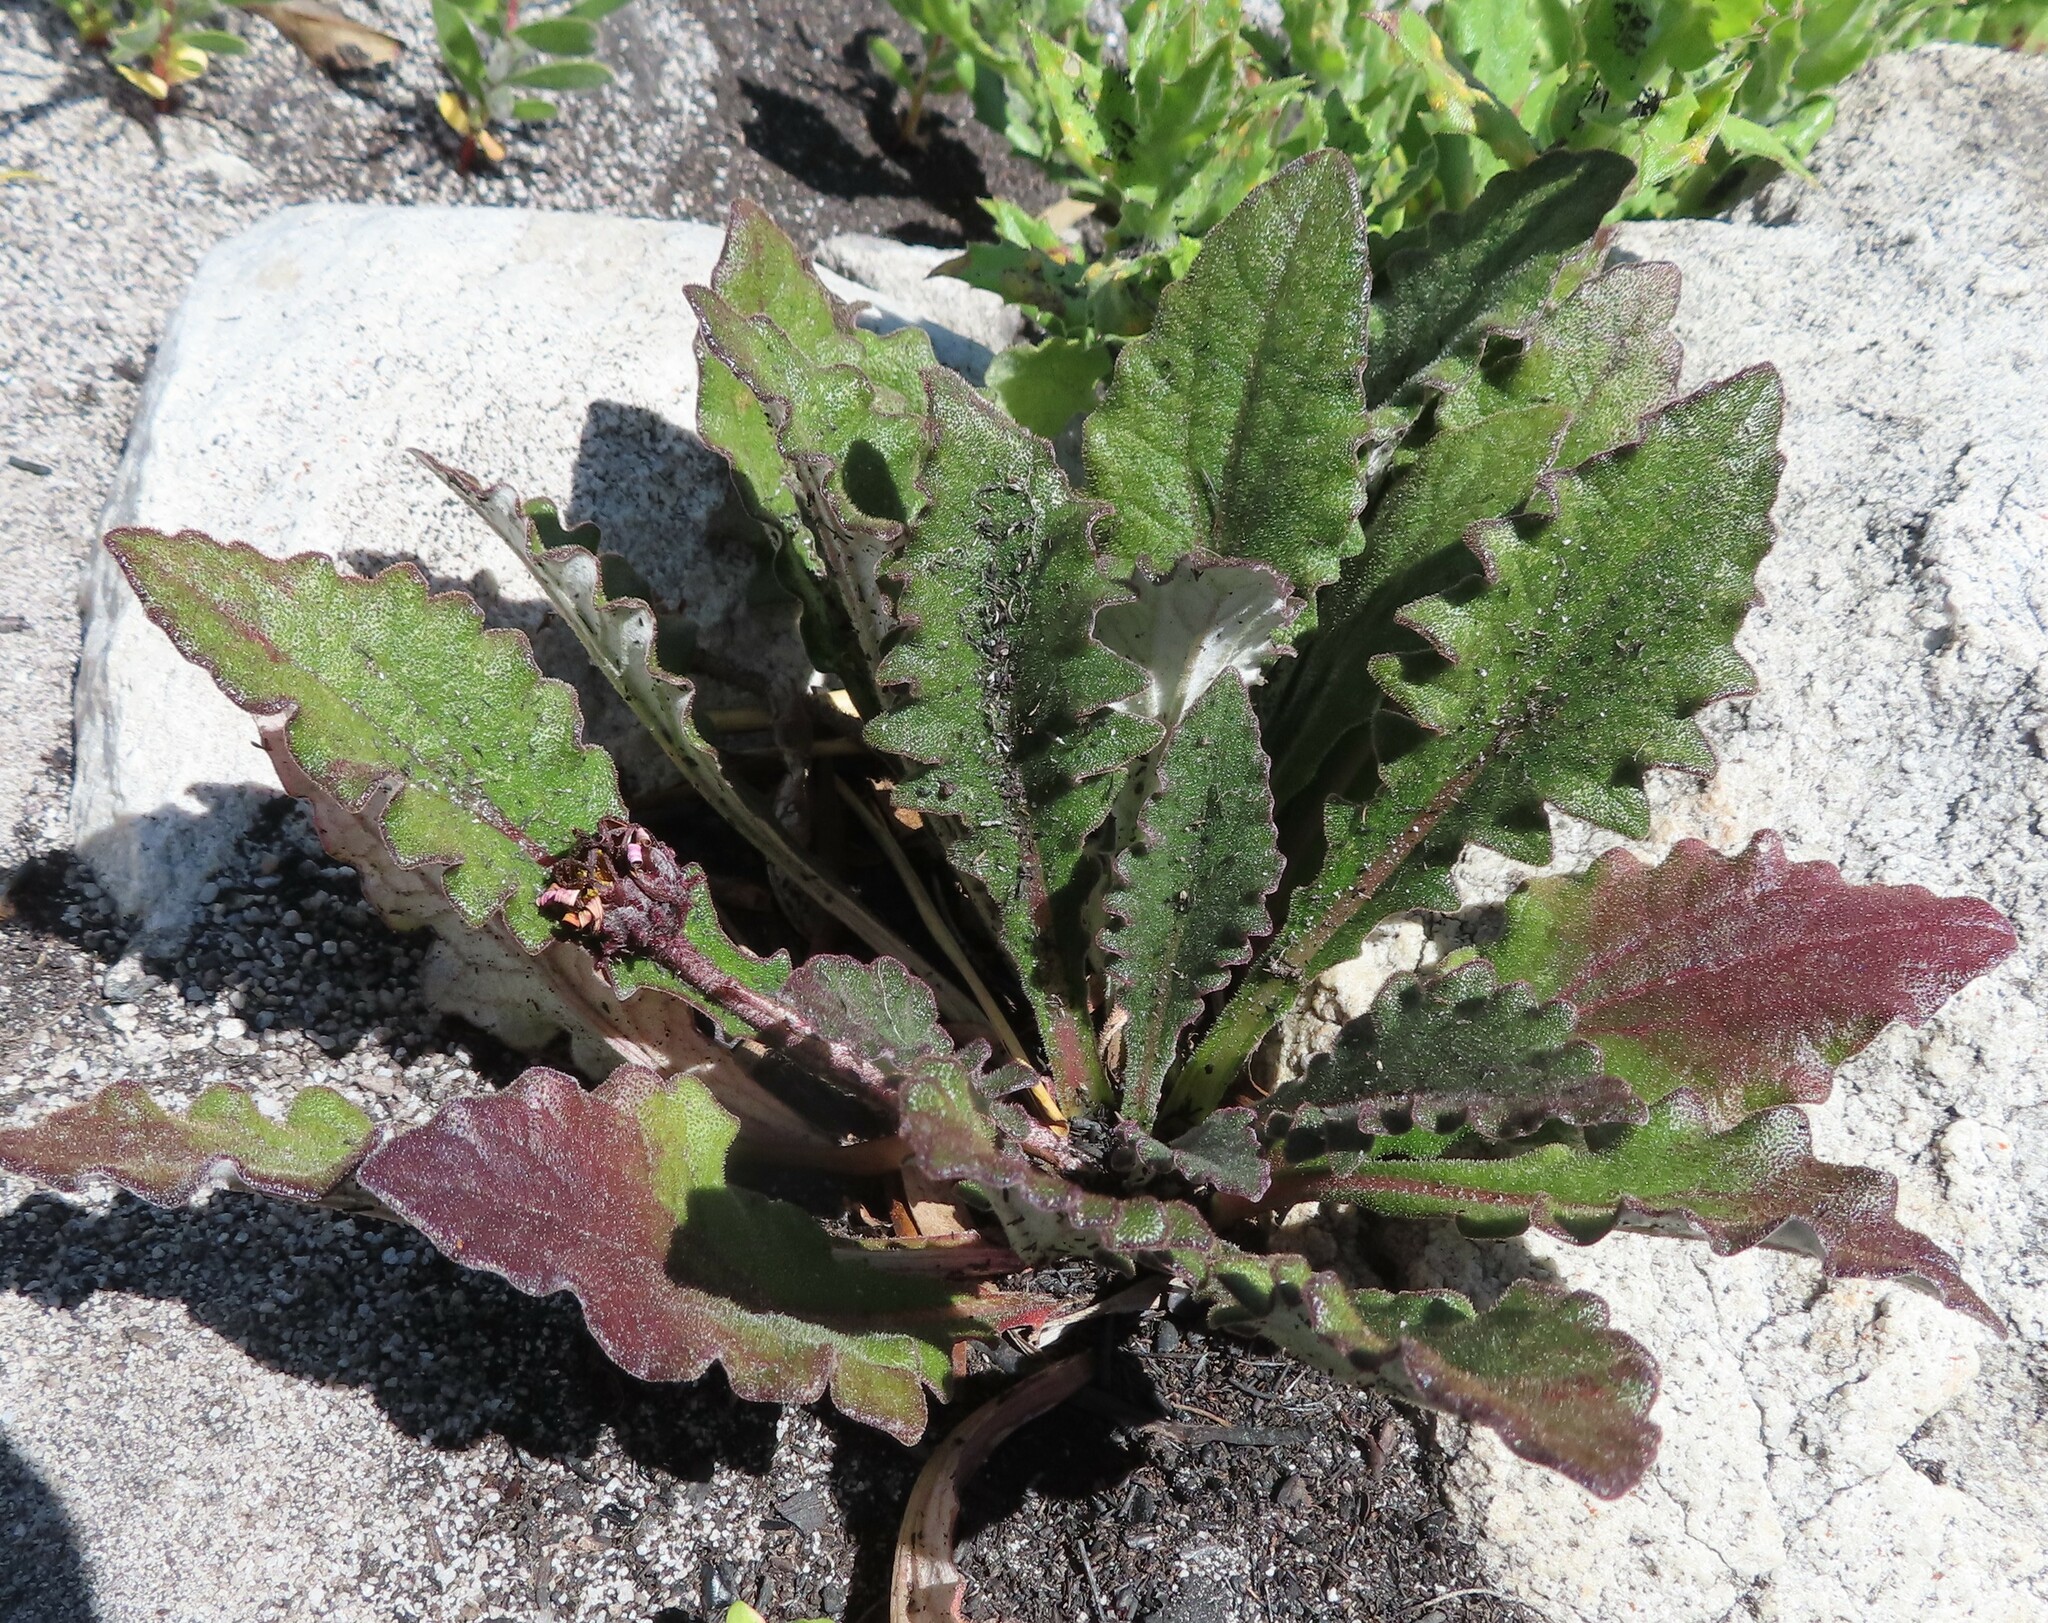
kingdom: Plantae
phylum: Tracheophyta
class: Magnoliopsida
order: Asterales
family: Asteraceae
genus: Haplocarpha
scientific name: Haplocarpha lanata
